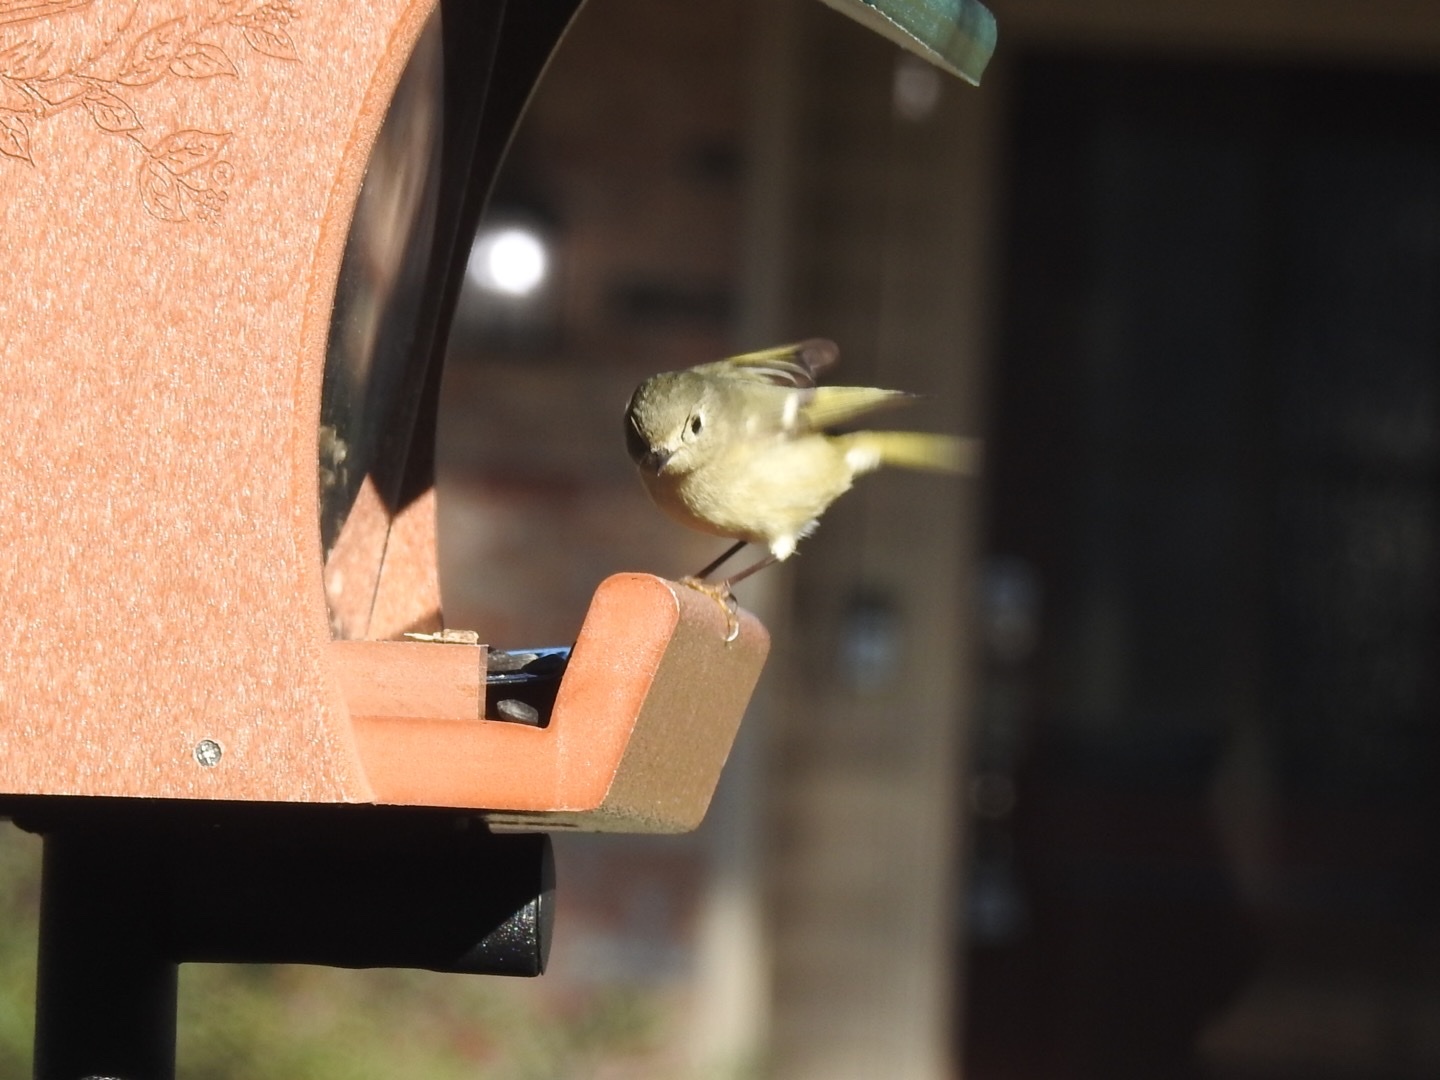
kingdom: Animalia
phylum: Chordata
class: Aves
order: Passeriformes
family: Regulidae
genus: Regulus
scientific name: Regulus calendula
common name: Ruby-crowned kinglet
